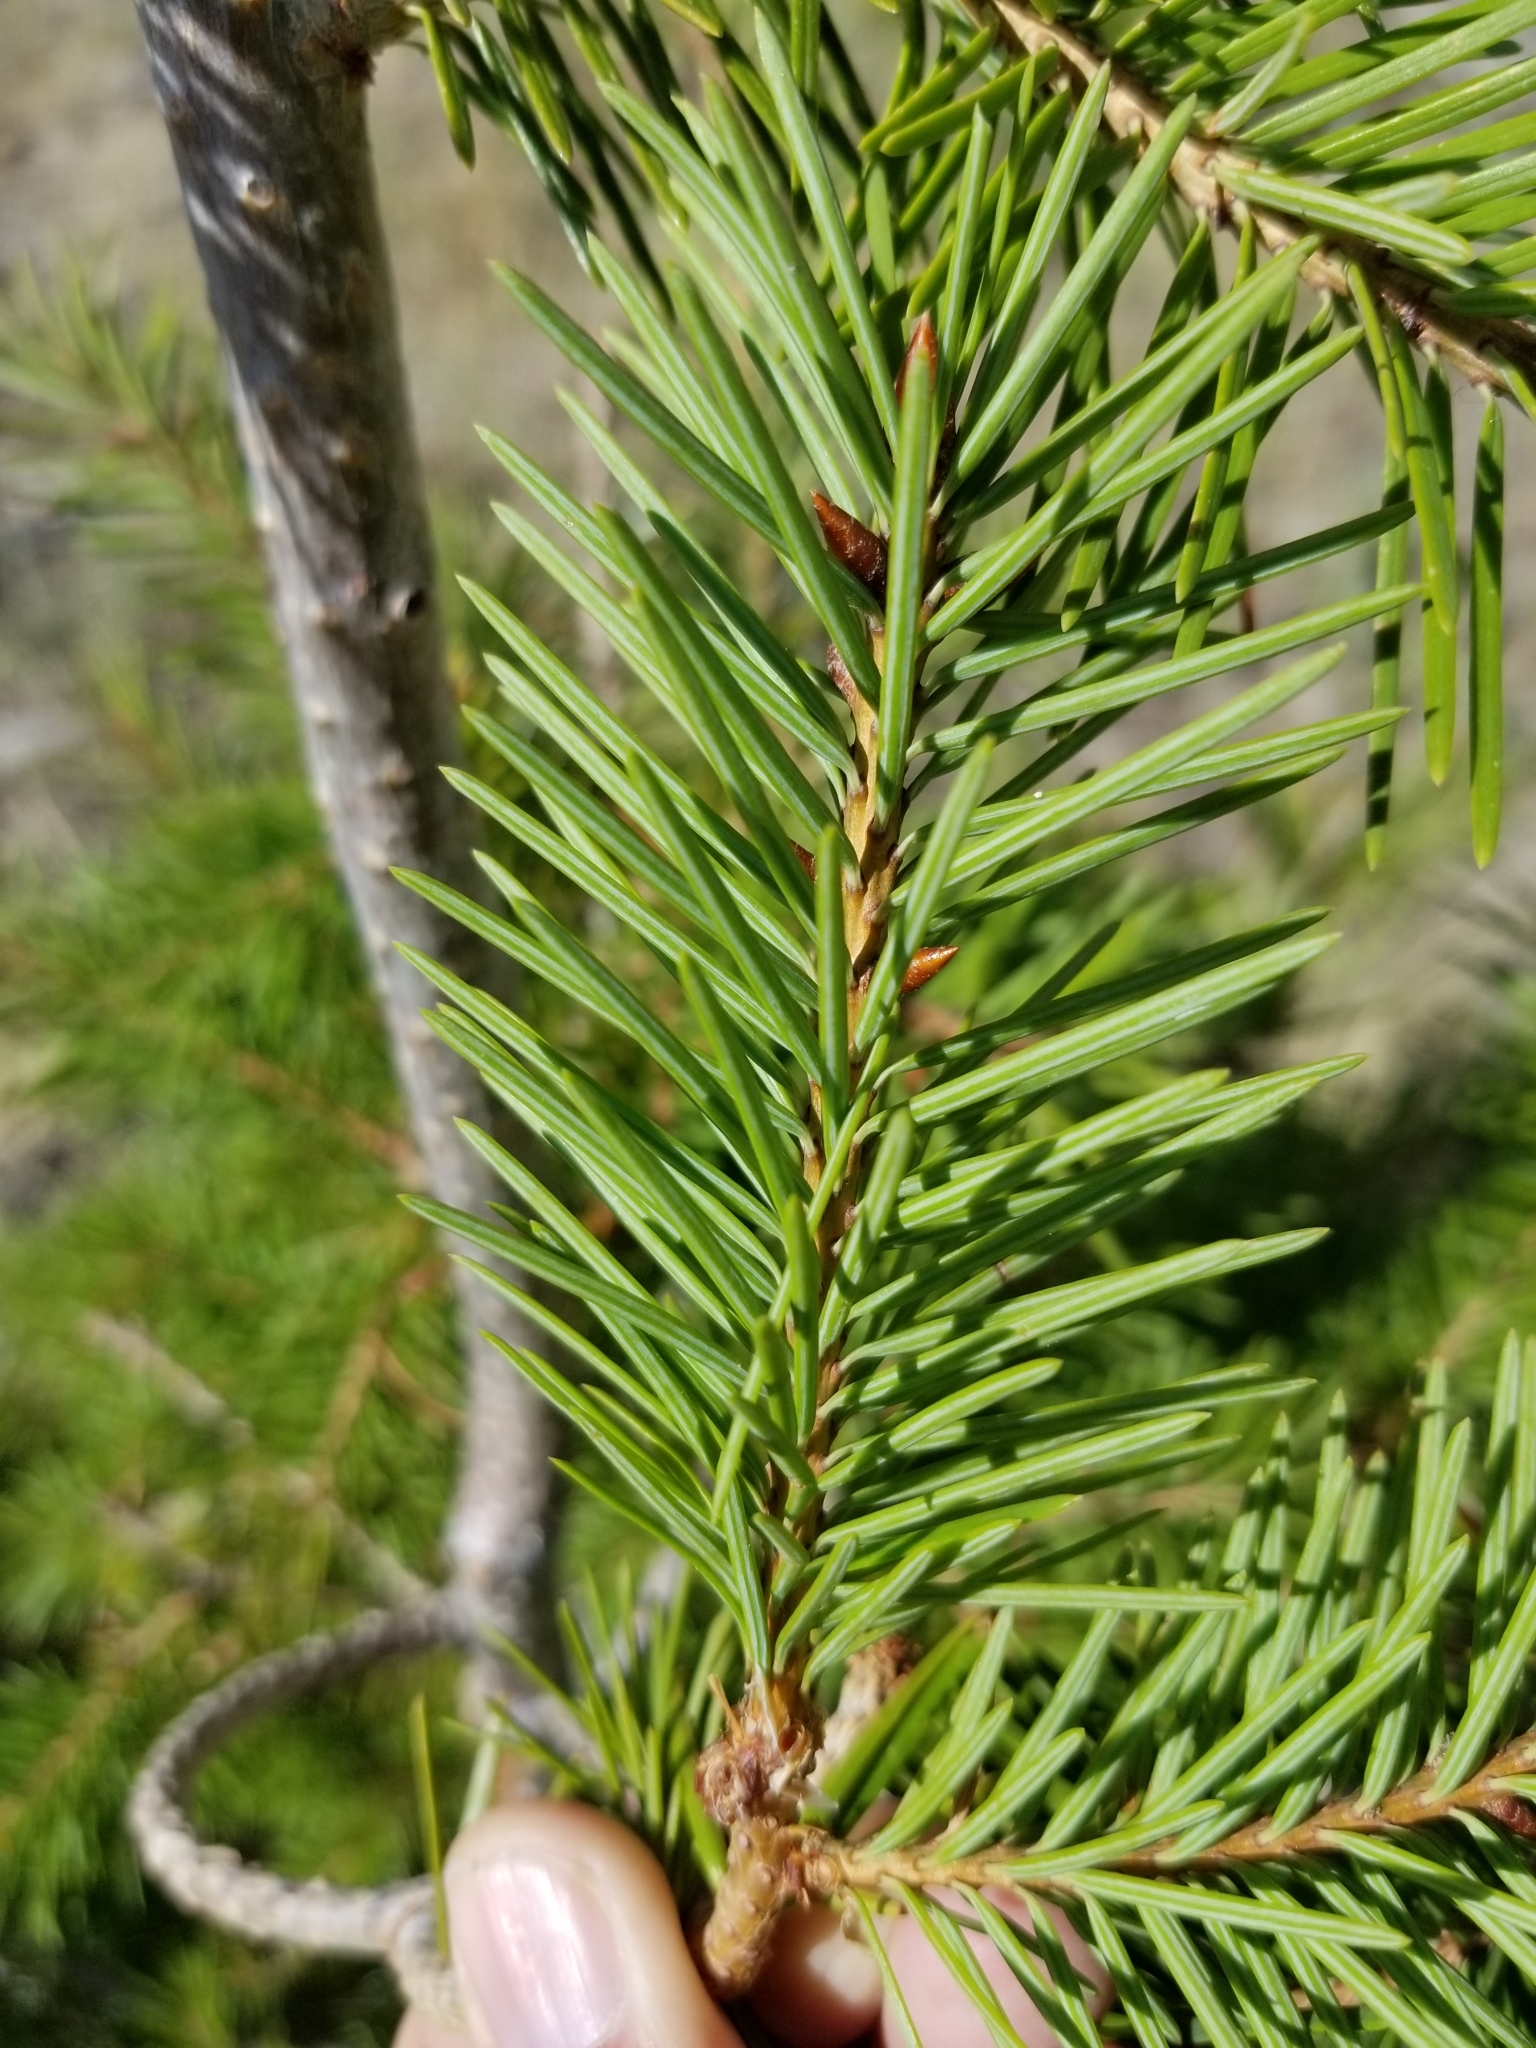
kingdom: Plantae
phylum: Tracheophyta
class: Pinopsida
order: Pinales
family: Pinaceae
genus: Pseudotsuga
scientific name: Pseudotsuga menziesii
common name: Douglas fir
